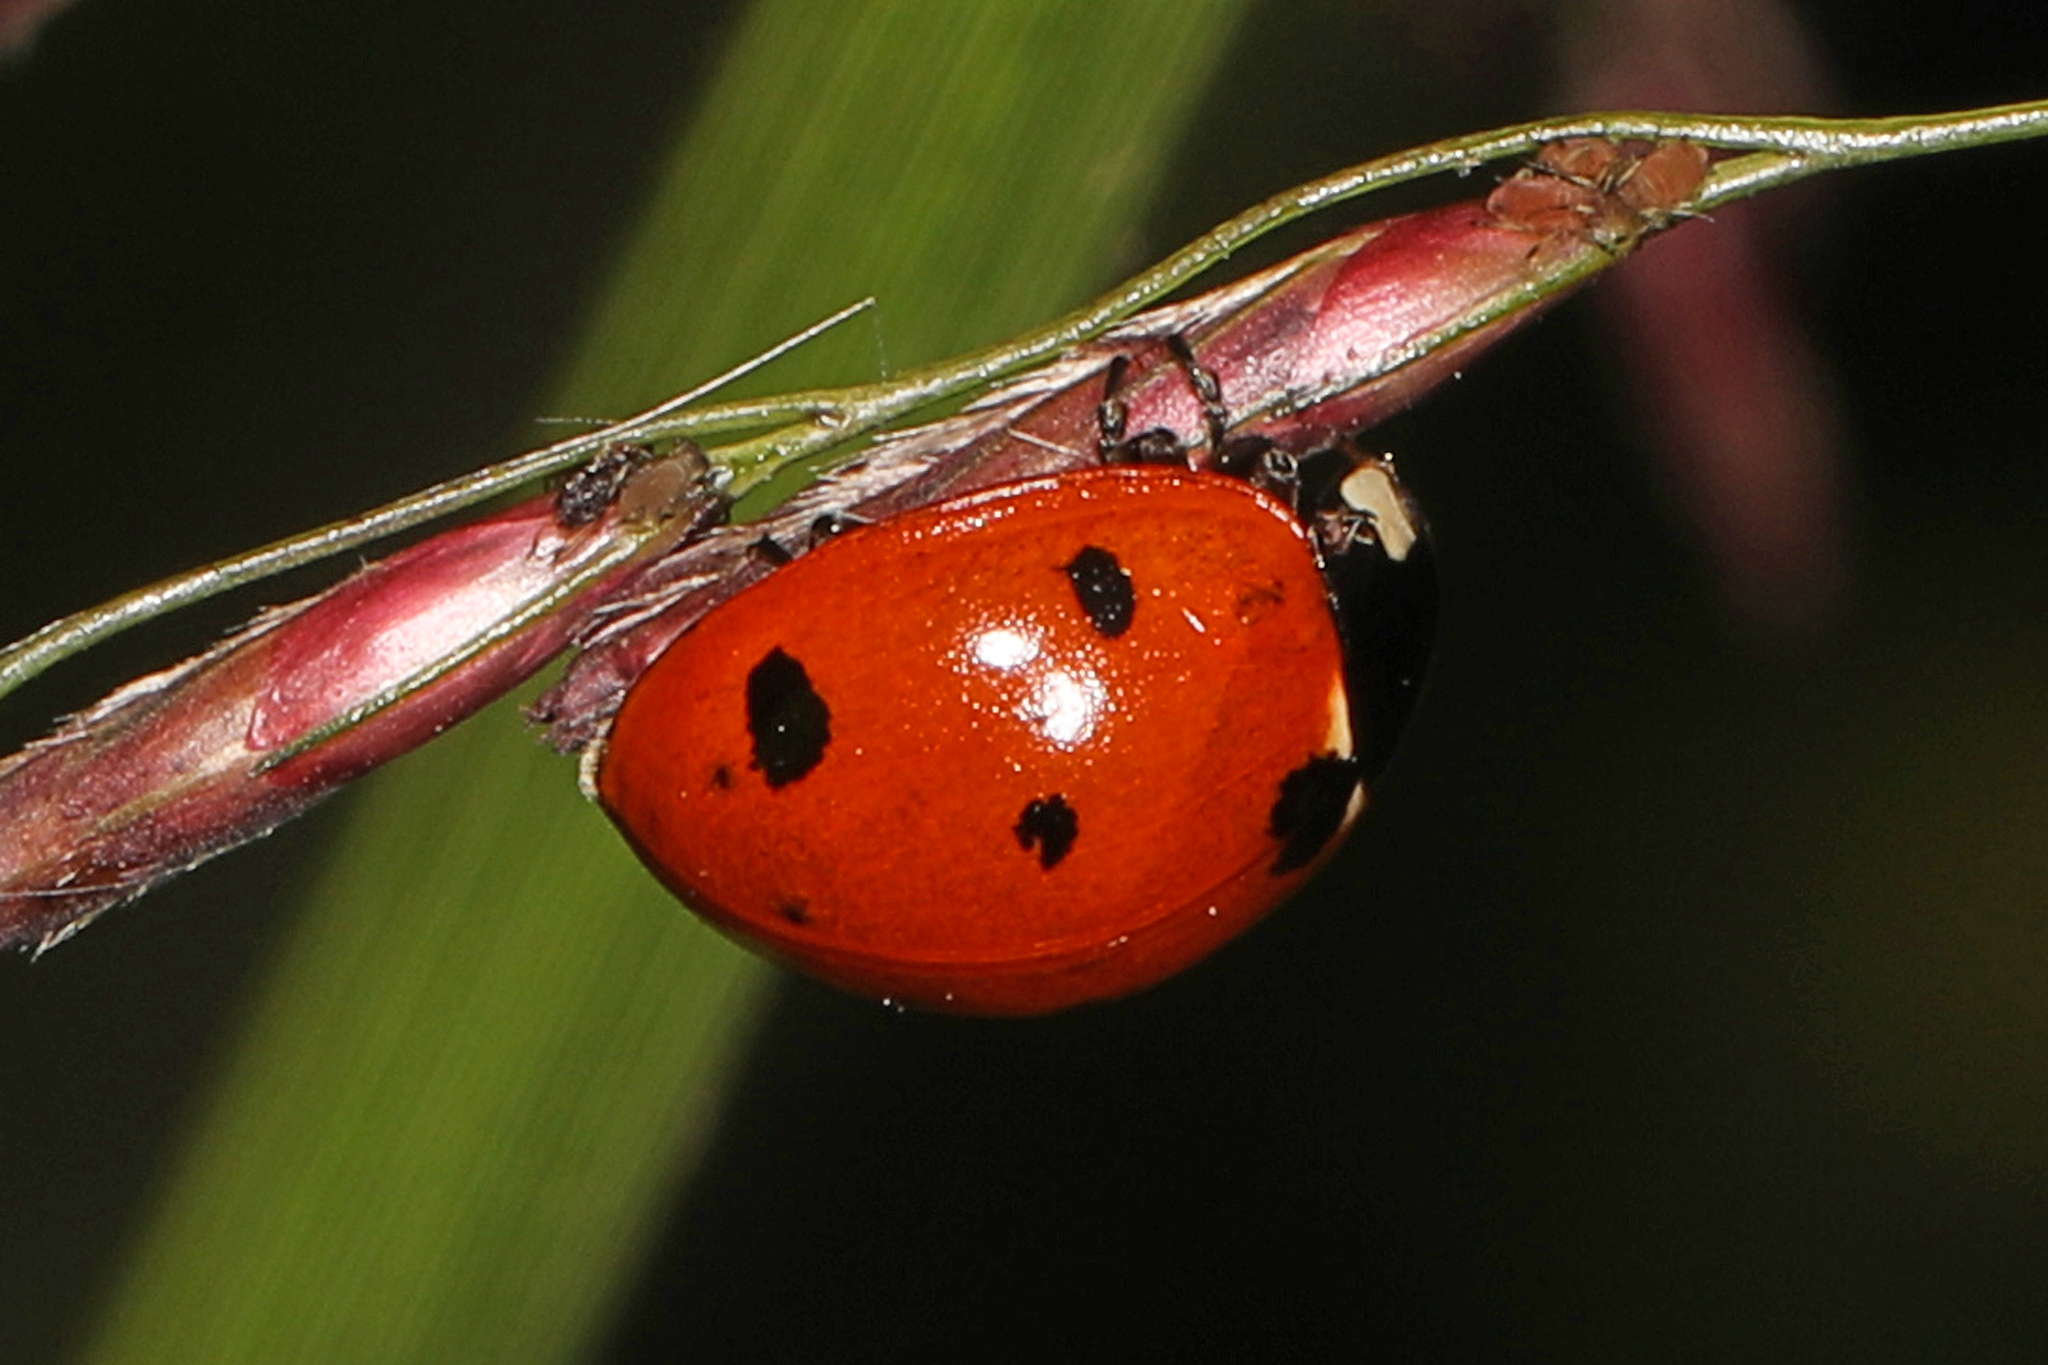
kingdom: Animalia
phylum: Arthropoda
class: Insecta
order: Coleoptera
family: Coccinellidae
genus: Coccinella
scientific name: Coccinella septempunctata
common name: Sevenspotted lady beetle
